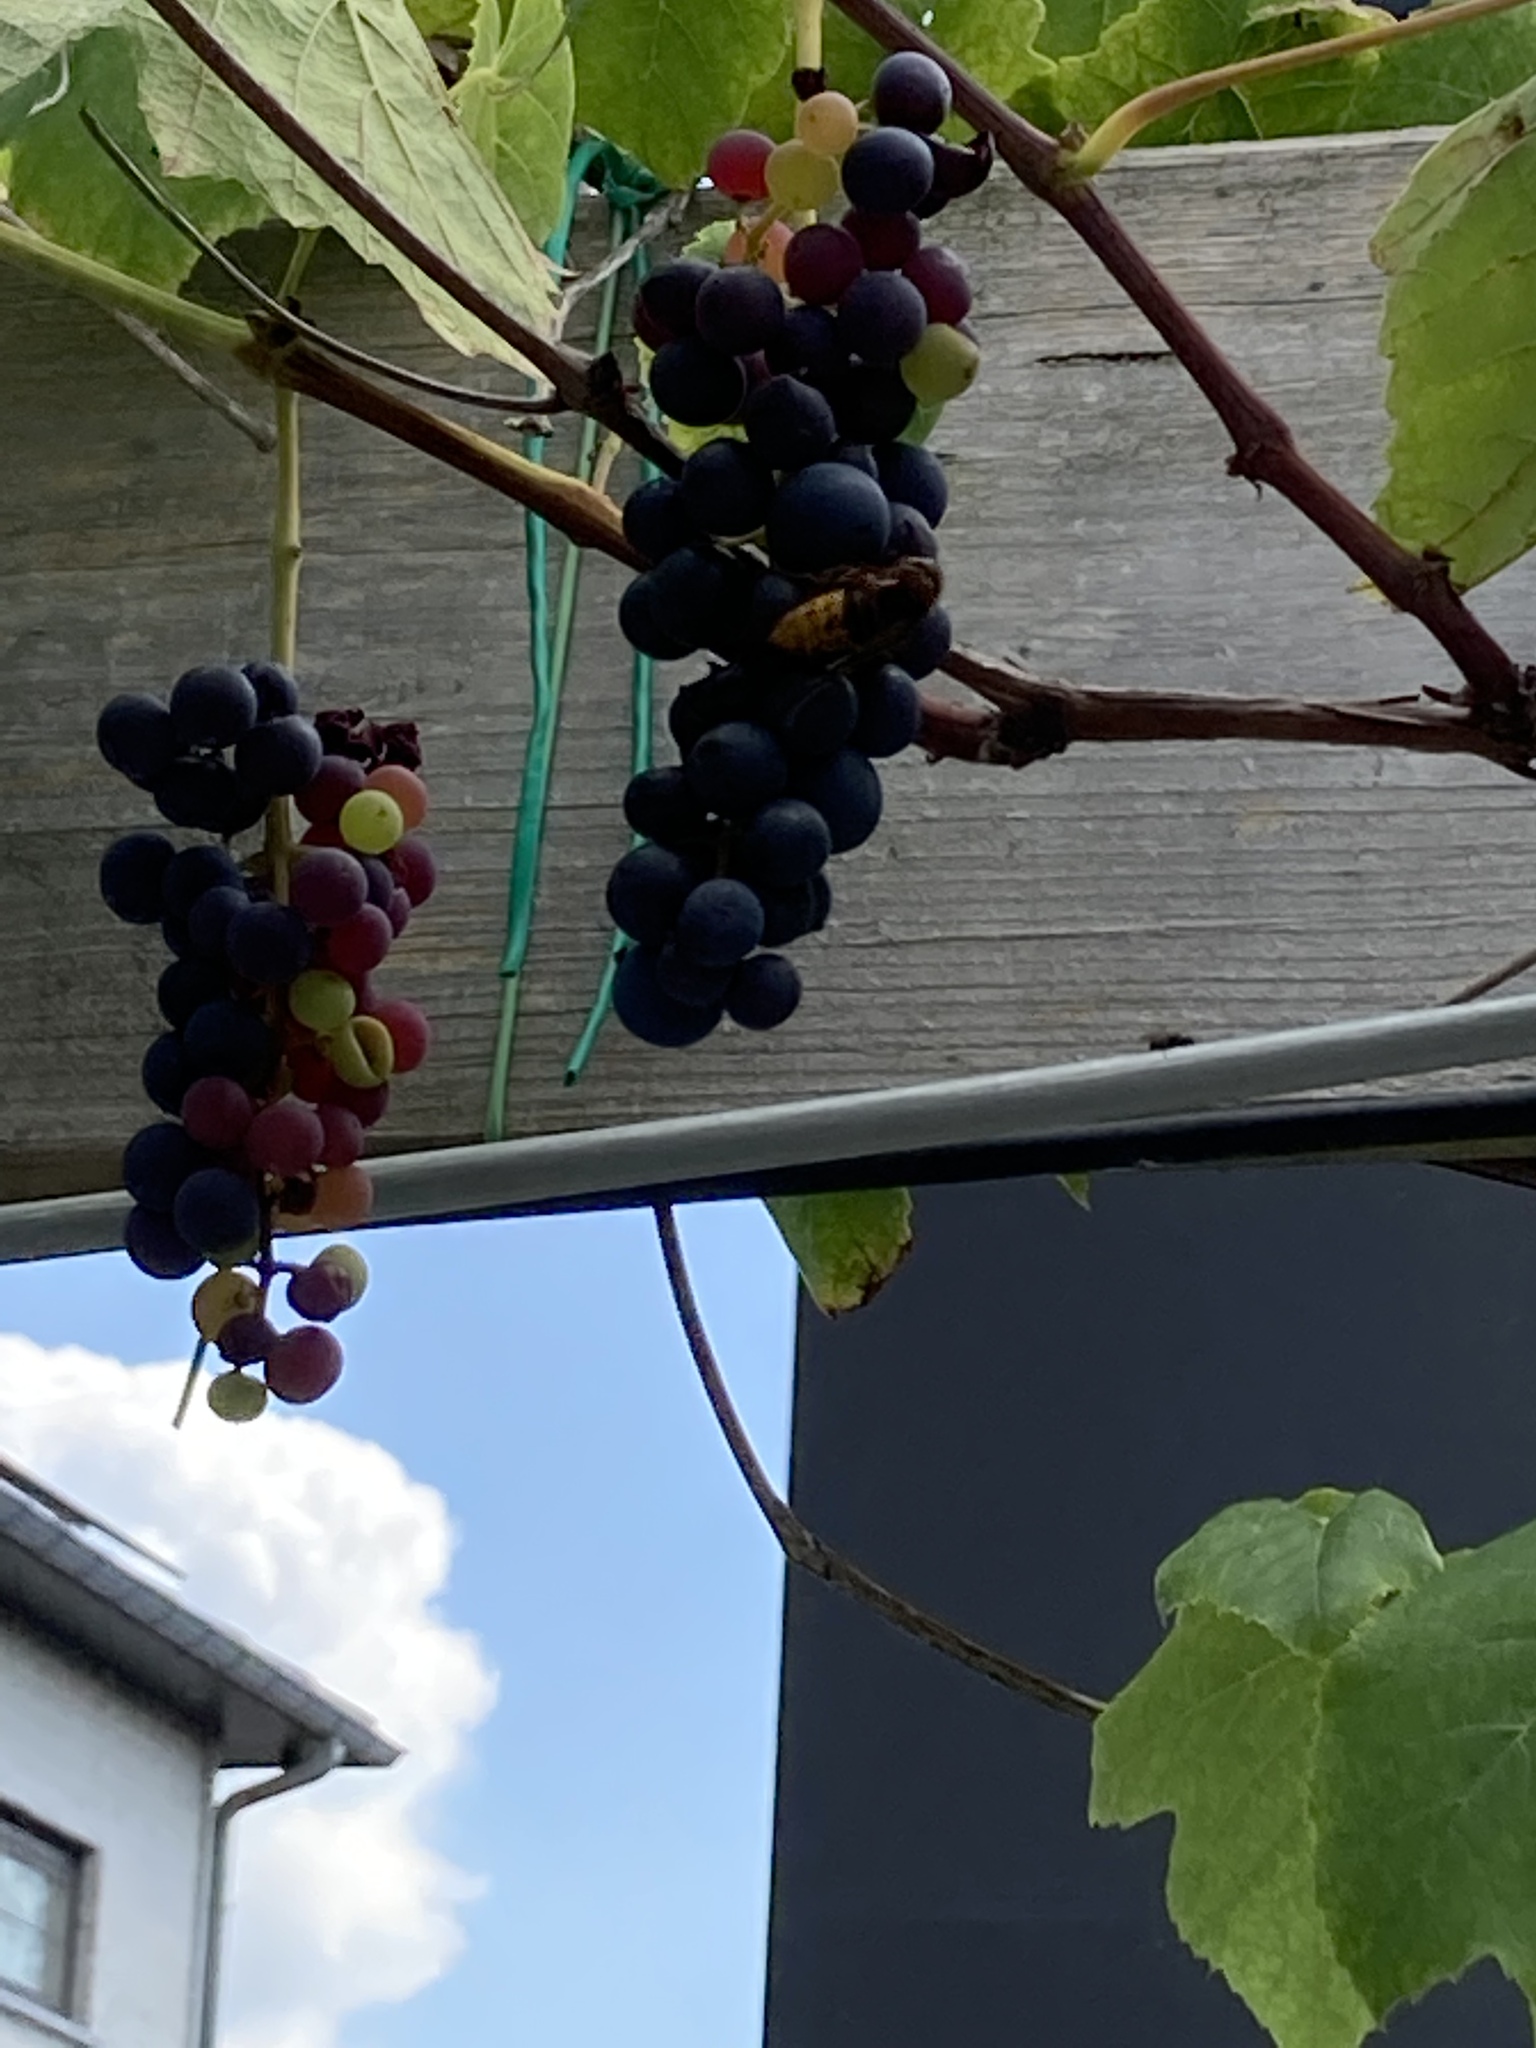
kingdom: Animalia
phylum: Arthropoda
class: Insecta
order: Hymenoptera
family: Vespidae
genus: Vespa
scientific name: Vespa crabro
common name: Hornet
